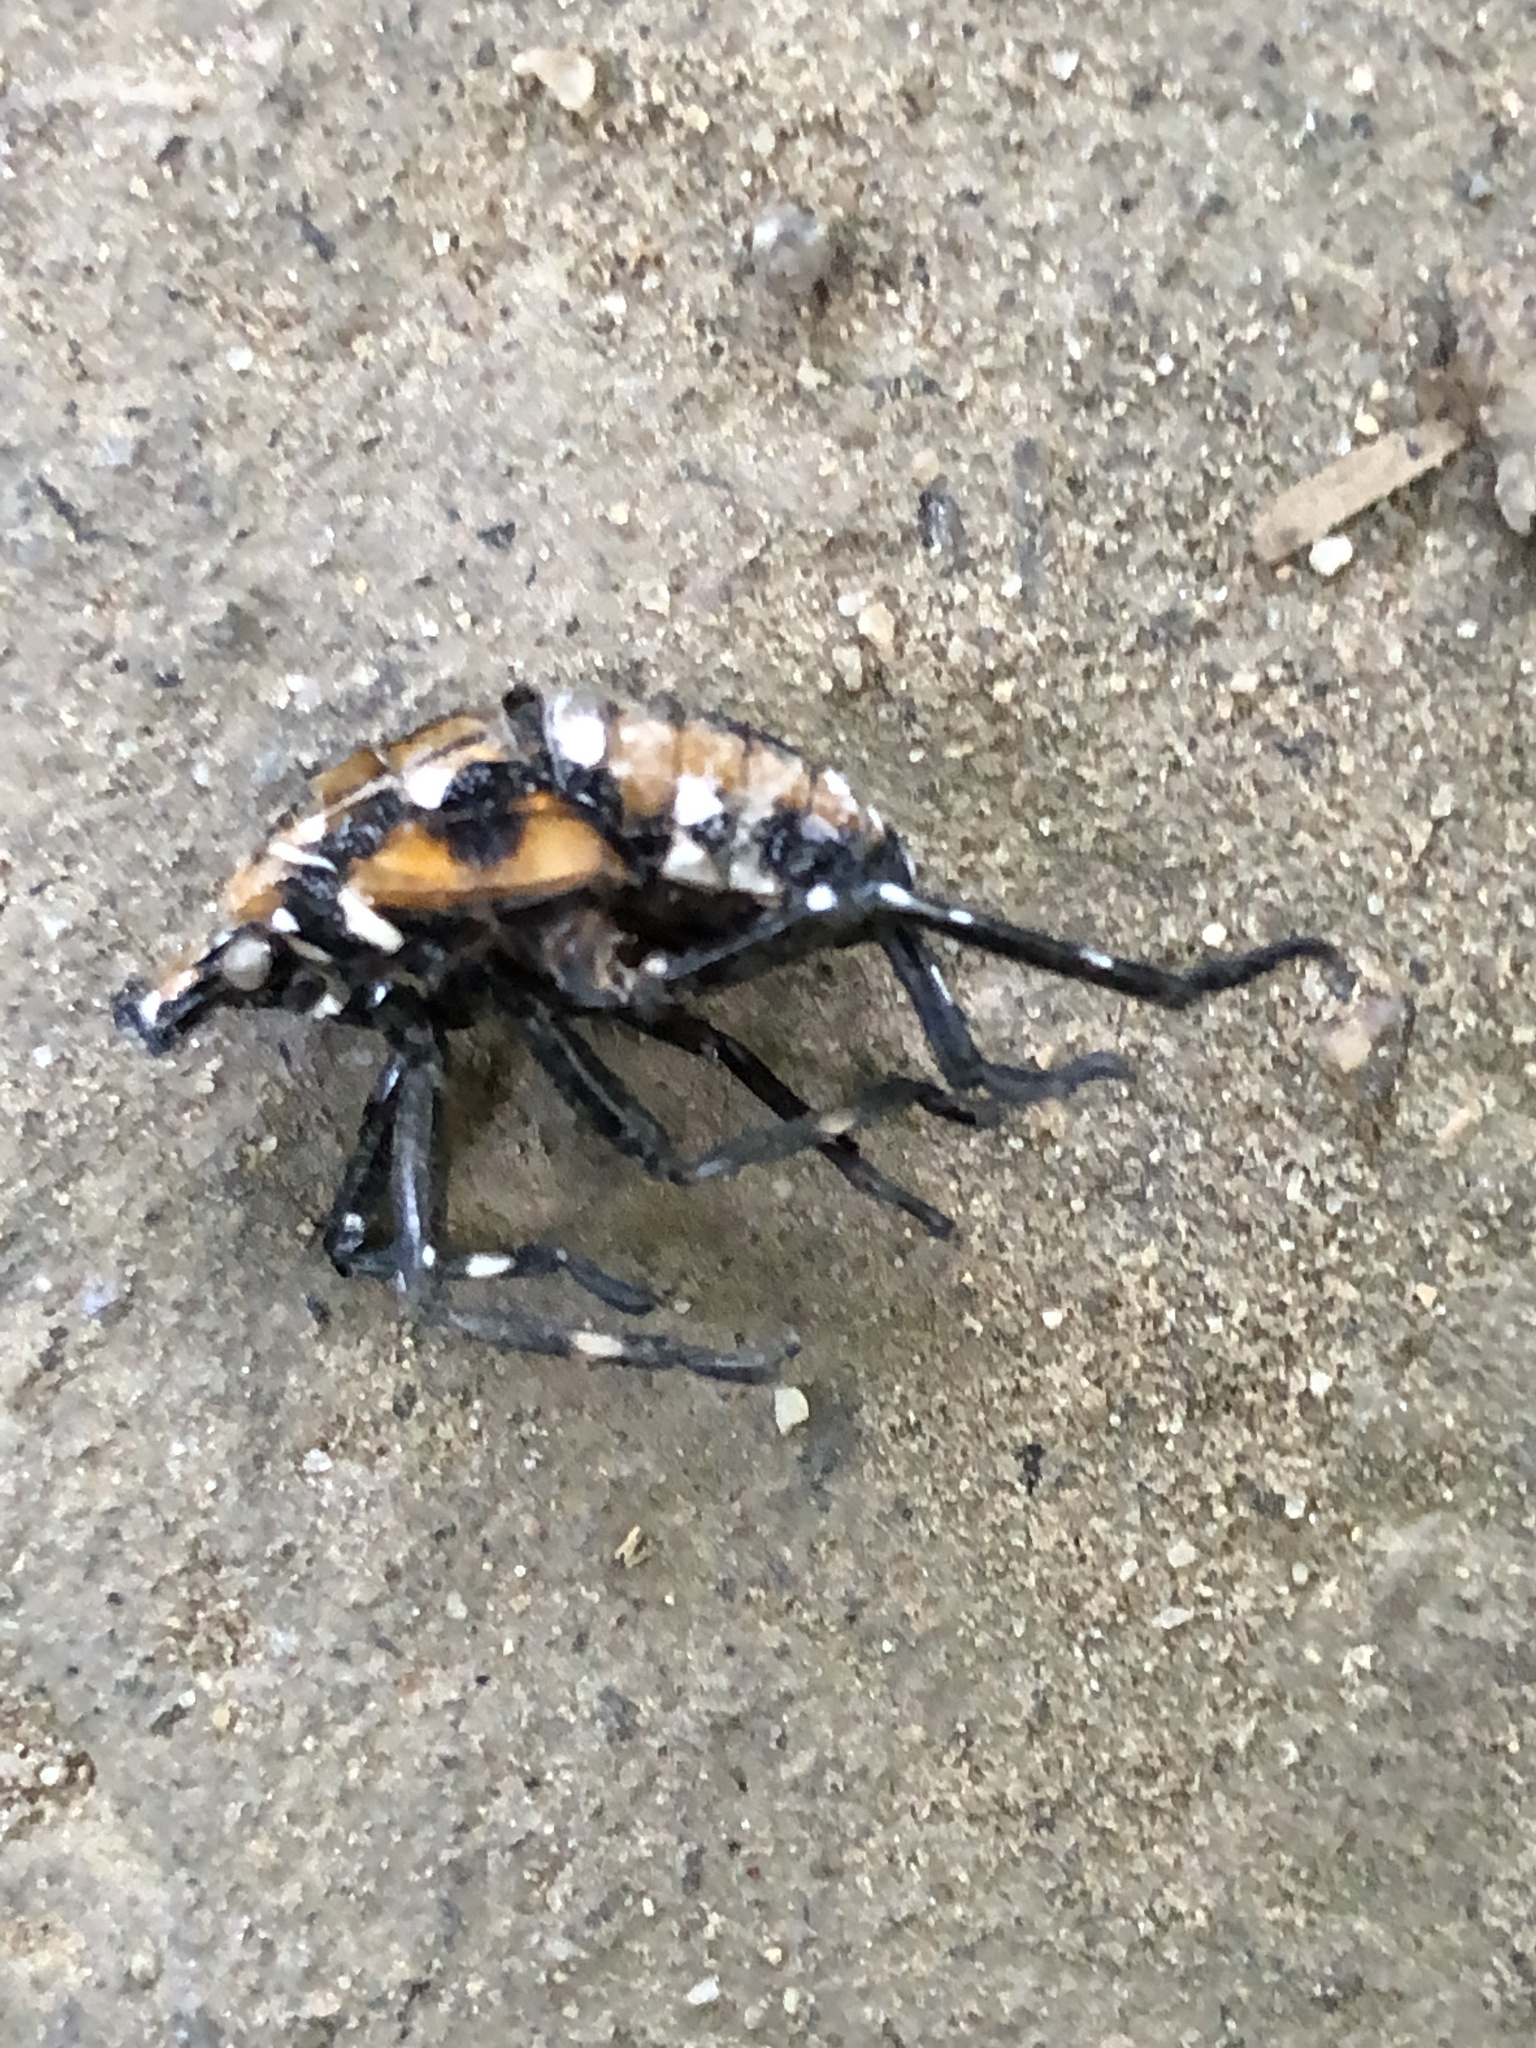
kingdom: Animalia
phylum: Arthropoda
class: Insecta
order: Hemiptera
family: Fulgoridae
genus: Lycorma
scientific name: Lycorma delicatula
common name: Spotted lanternfly
